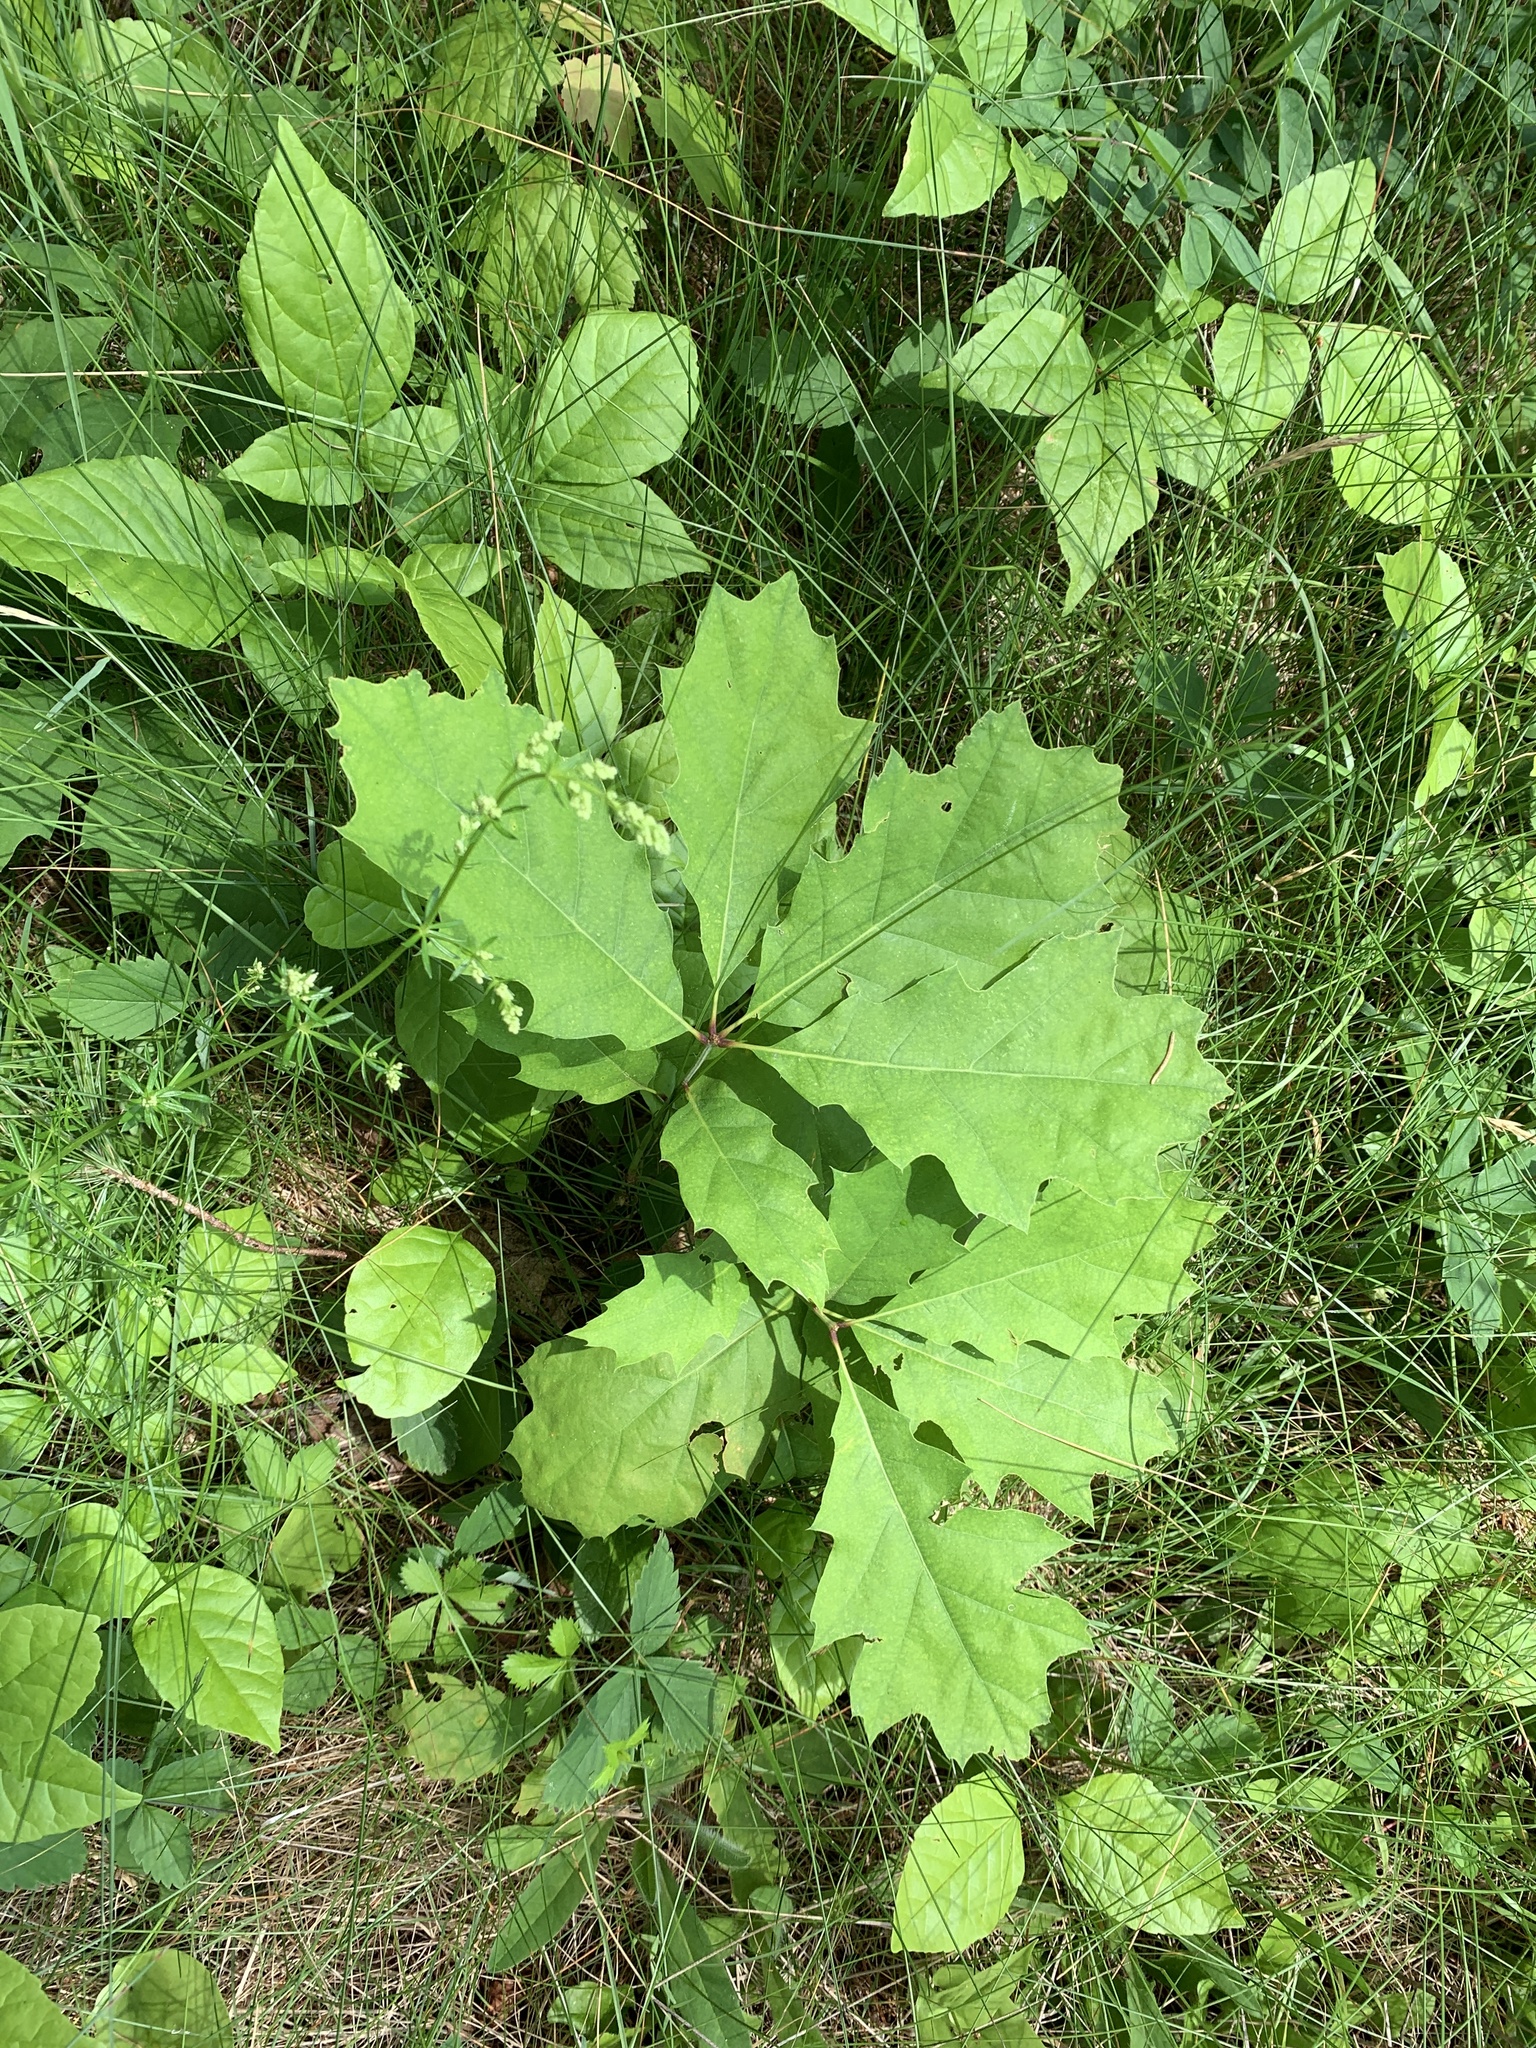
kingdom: Plantae
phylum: Tracheophyta
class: Magnoliopsida
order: Fagales
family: Fagaceae
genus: Quercus
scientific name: Quercus rubra
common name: Red oak
